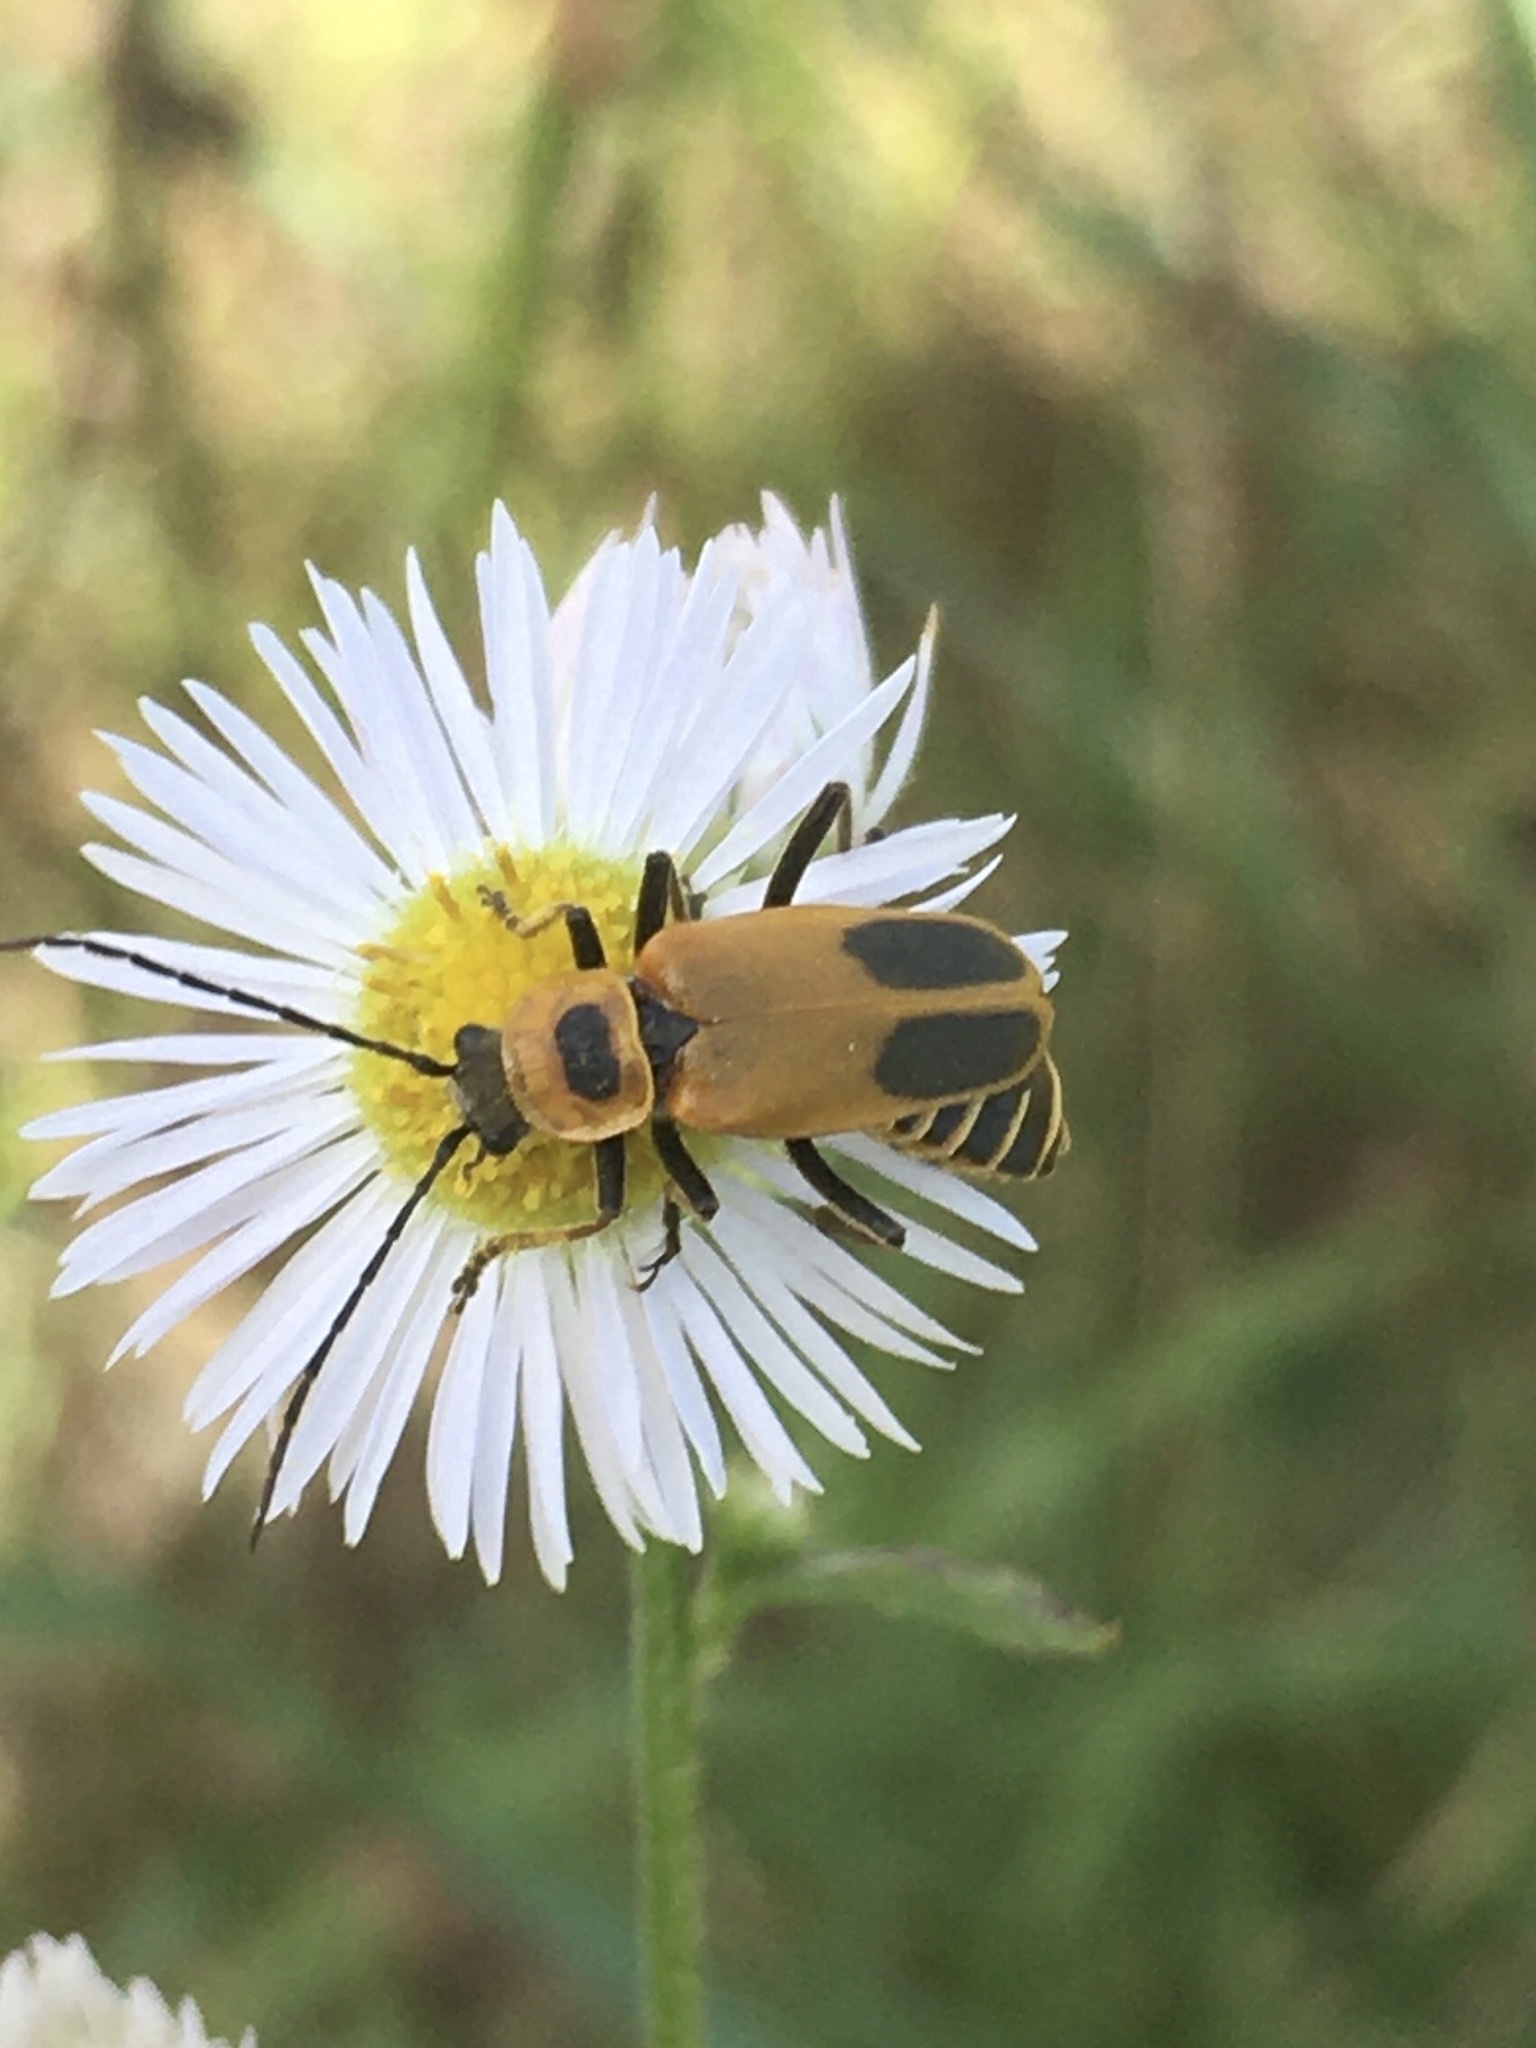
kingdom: Animalia
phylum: Arthropoda
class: Insecta
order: Coleoptera
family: Cantharidae
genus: Chauliognathus
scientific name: Chauliognathus pensylvanicus
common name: Goldenrod soldier beetle
